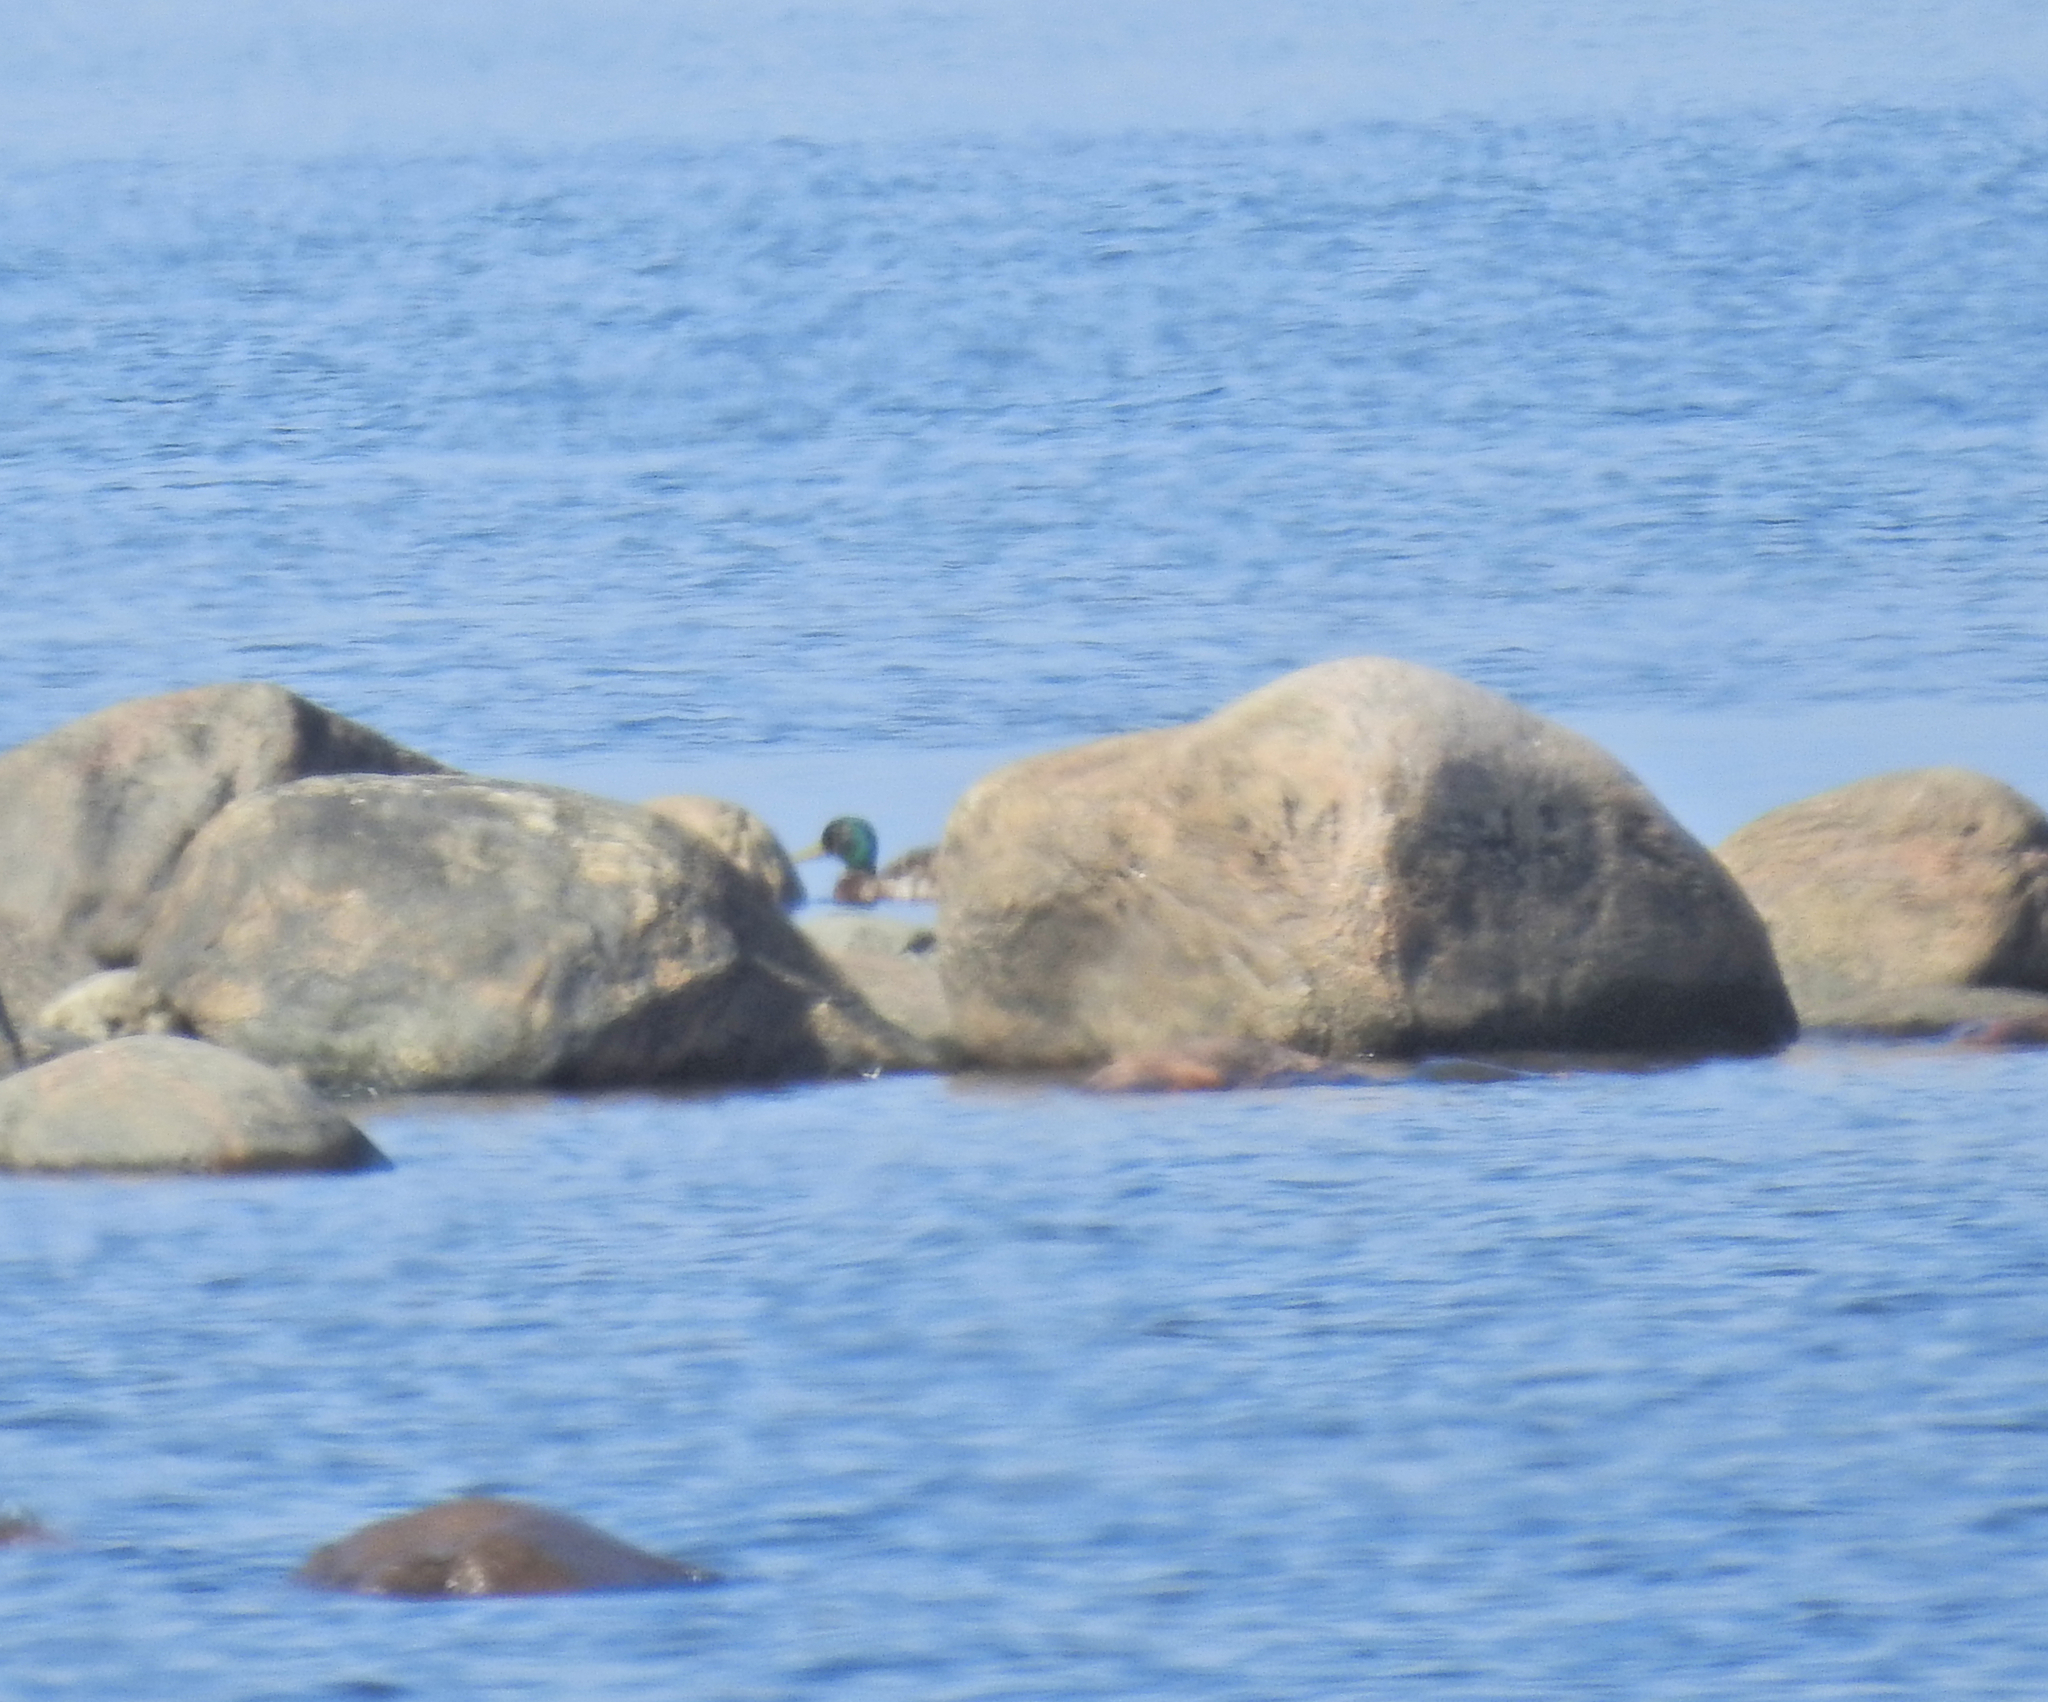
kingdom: Animalia
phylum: Chordata
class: Aves
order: Anseriformes
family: Anatidae
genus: Anas
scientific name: Anas platyrhynchos
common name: Mallard
